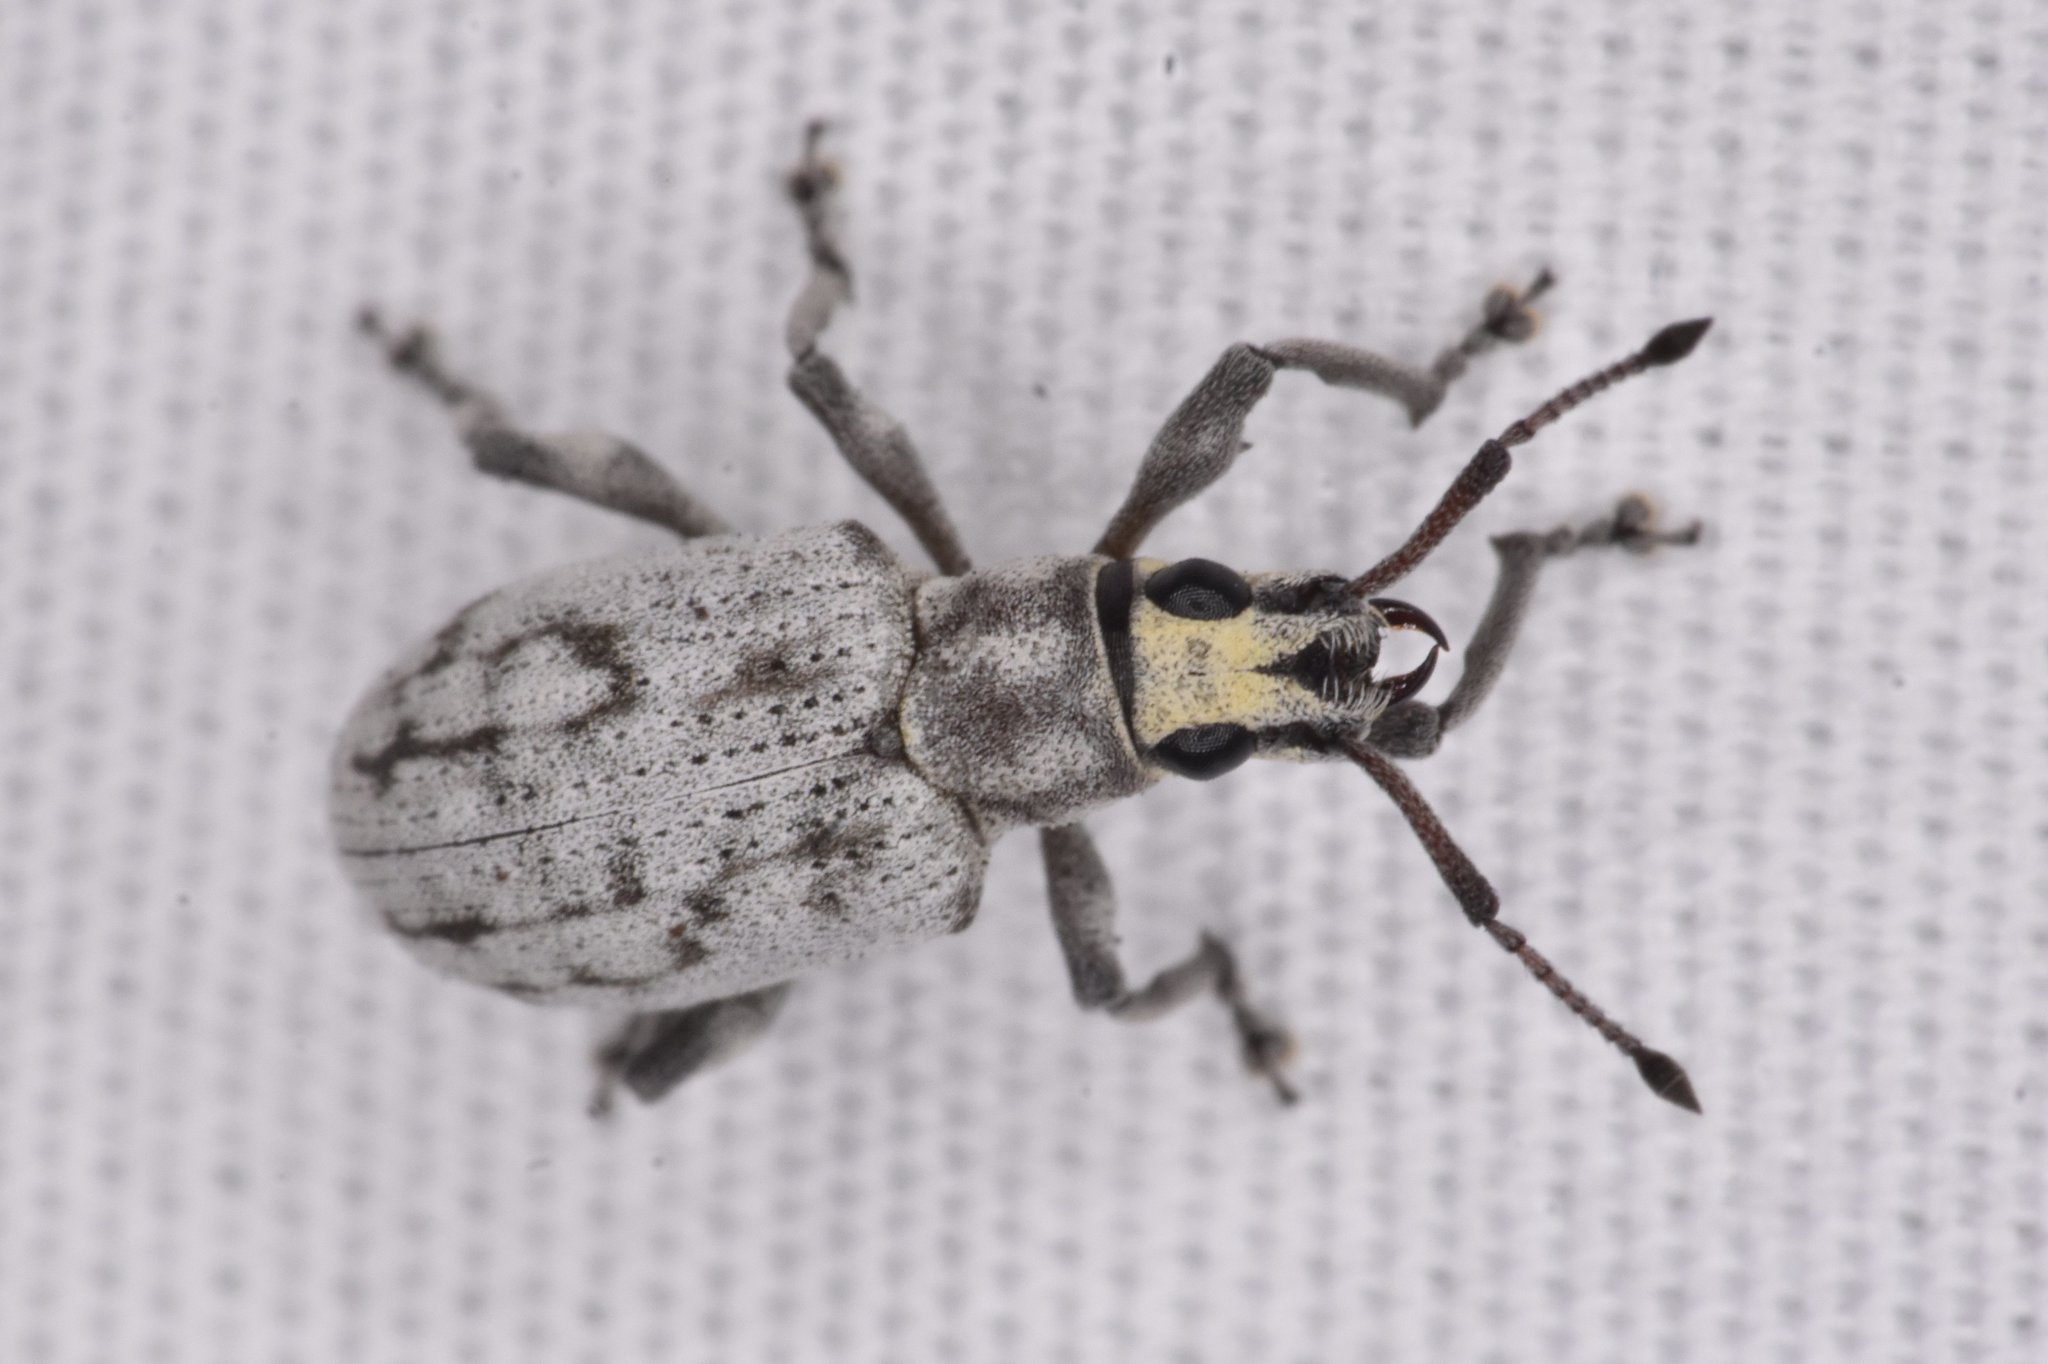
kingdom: Animalia
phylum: Arthropoda
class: Insecta
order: Coleoptera
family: Curculionidae
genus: Myllocerus
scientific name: Myllocerus undecimpustulatus
